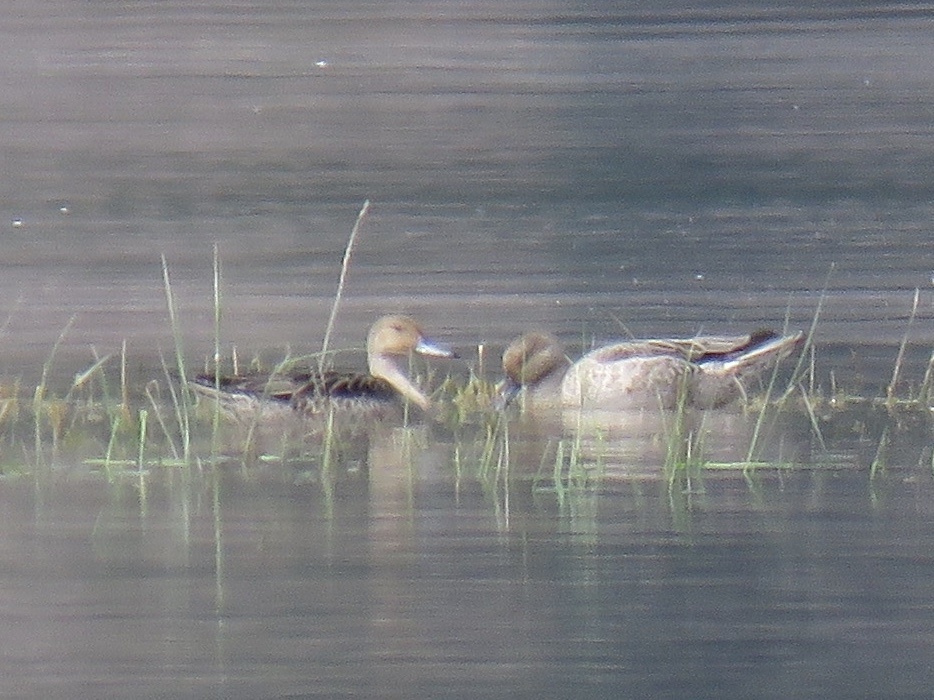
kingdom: Animalia
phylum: Chordata
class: Aves
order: Anseriformes
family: Anatidae
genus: Anas
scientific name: Anas acuta
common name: Northern pintail
